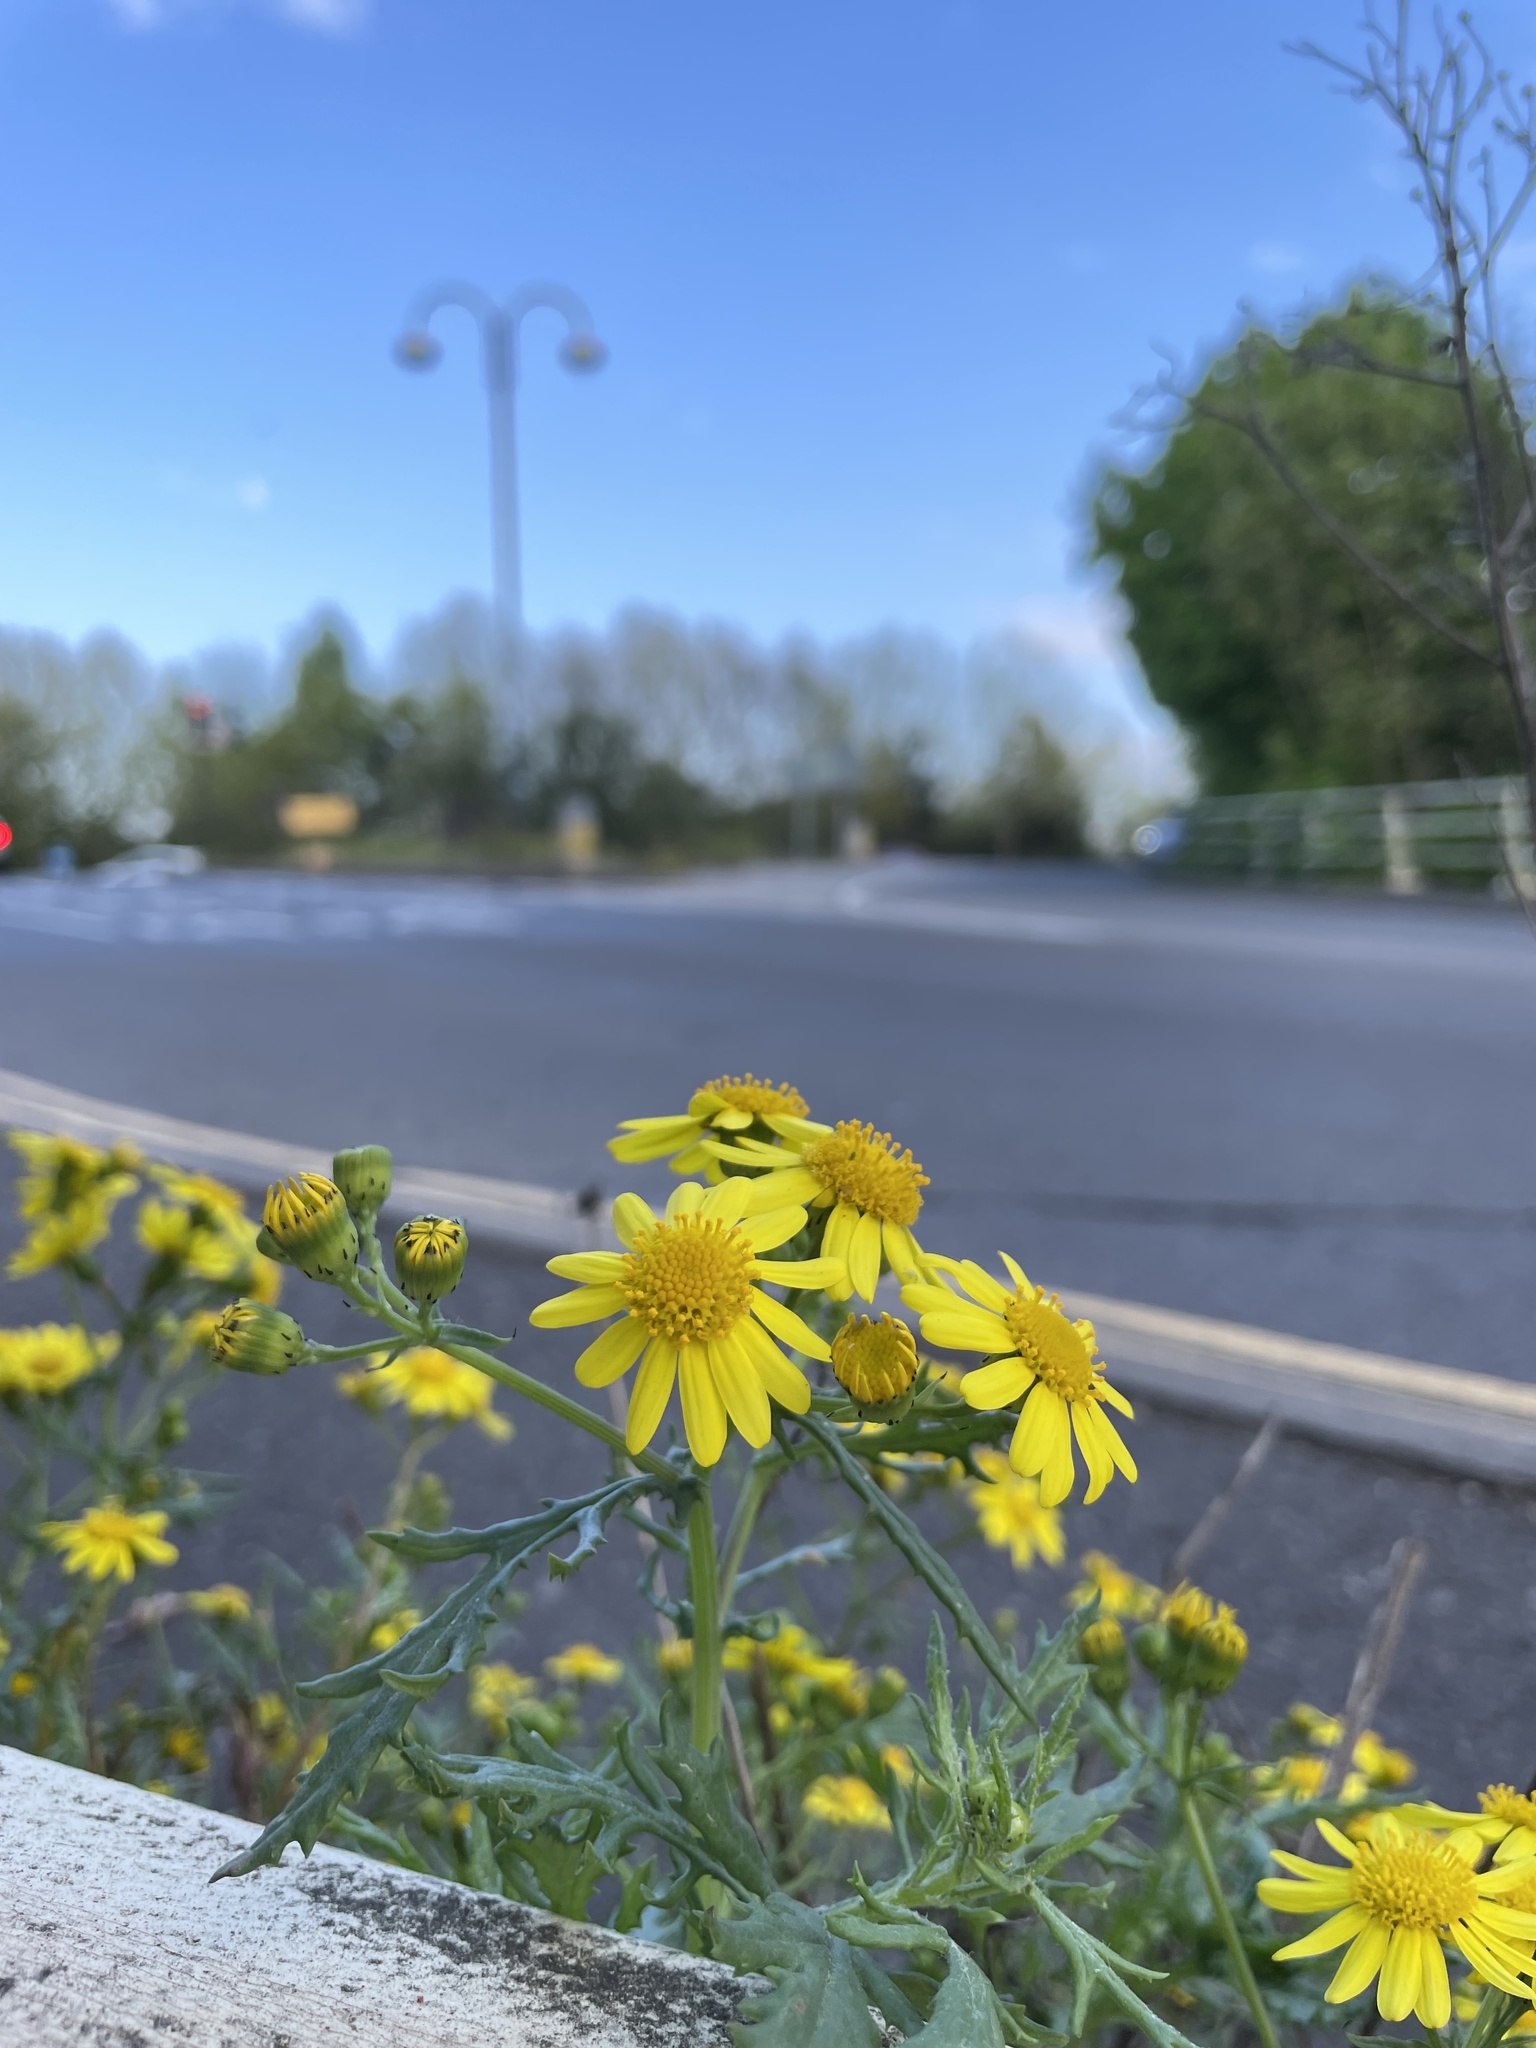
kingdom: Plantae
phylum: Tracheophyta
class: Magnoliopsida
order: Asterales
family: Asteraceae
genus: Senecio
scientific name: Senecio squalidus
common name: Oxford ragwort
